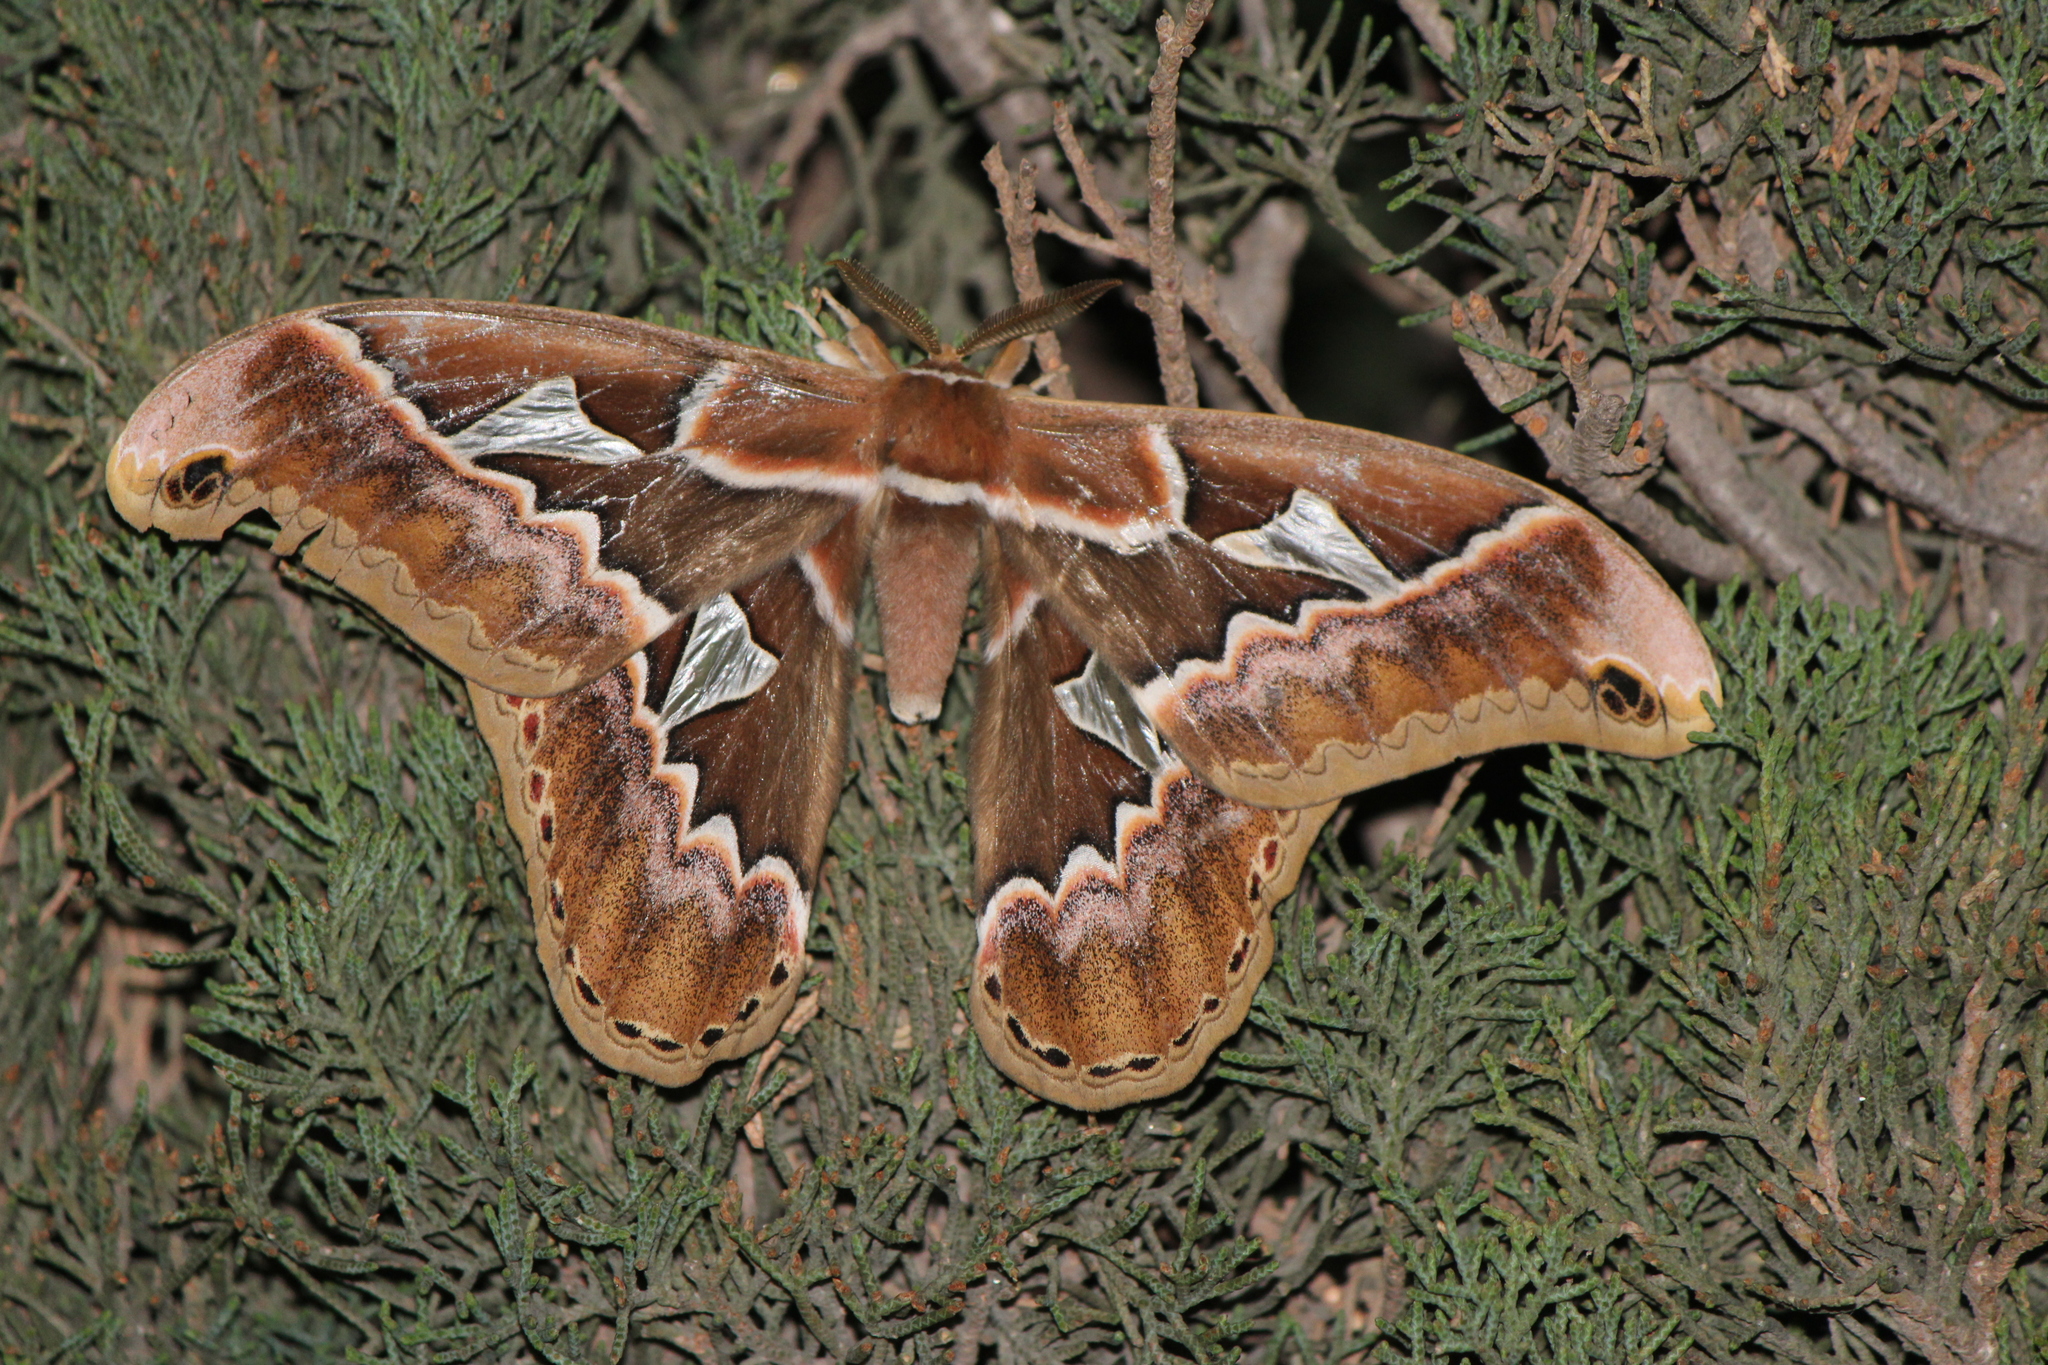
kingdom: Animalia
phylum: Arthropoda
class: Insecta
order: Lepidoptera
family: Saturniidae
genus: Rothschildia
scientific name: Rothschildia orizaba
